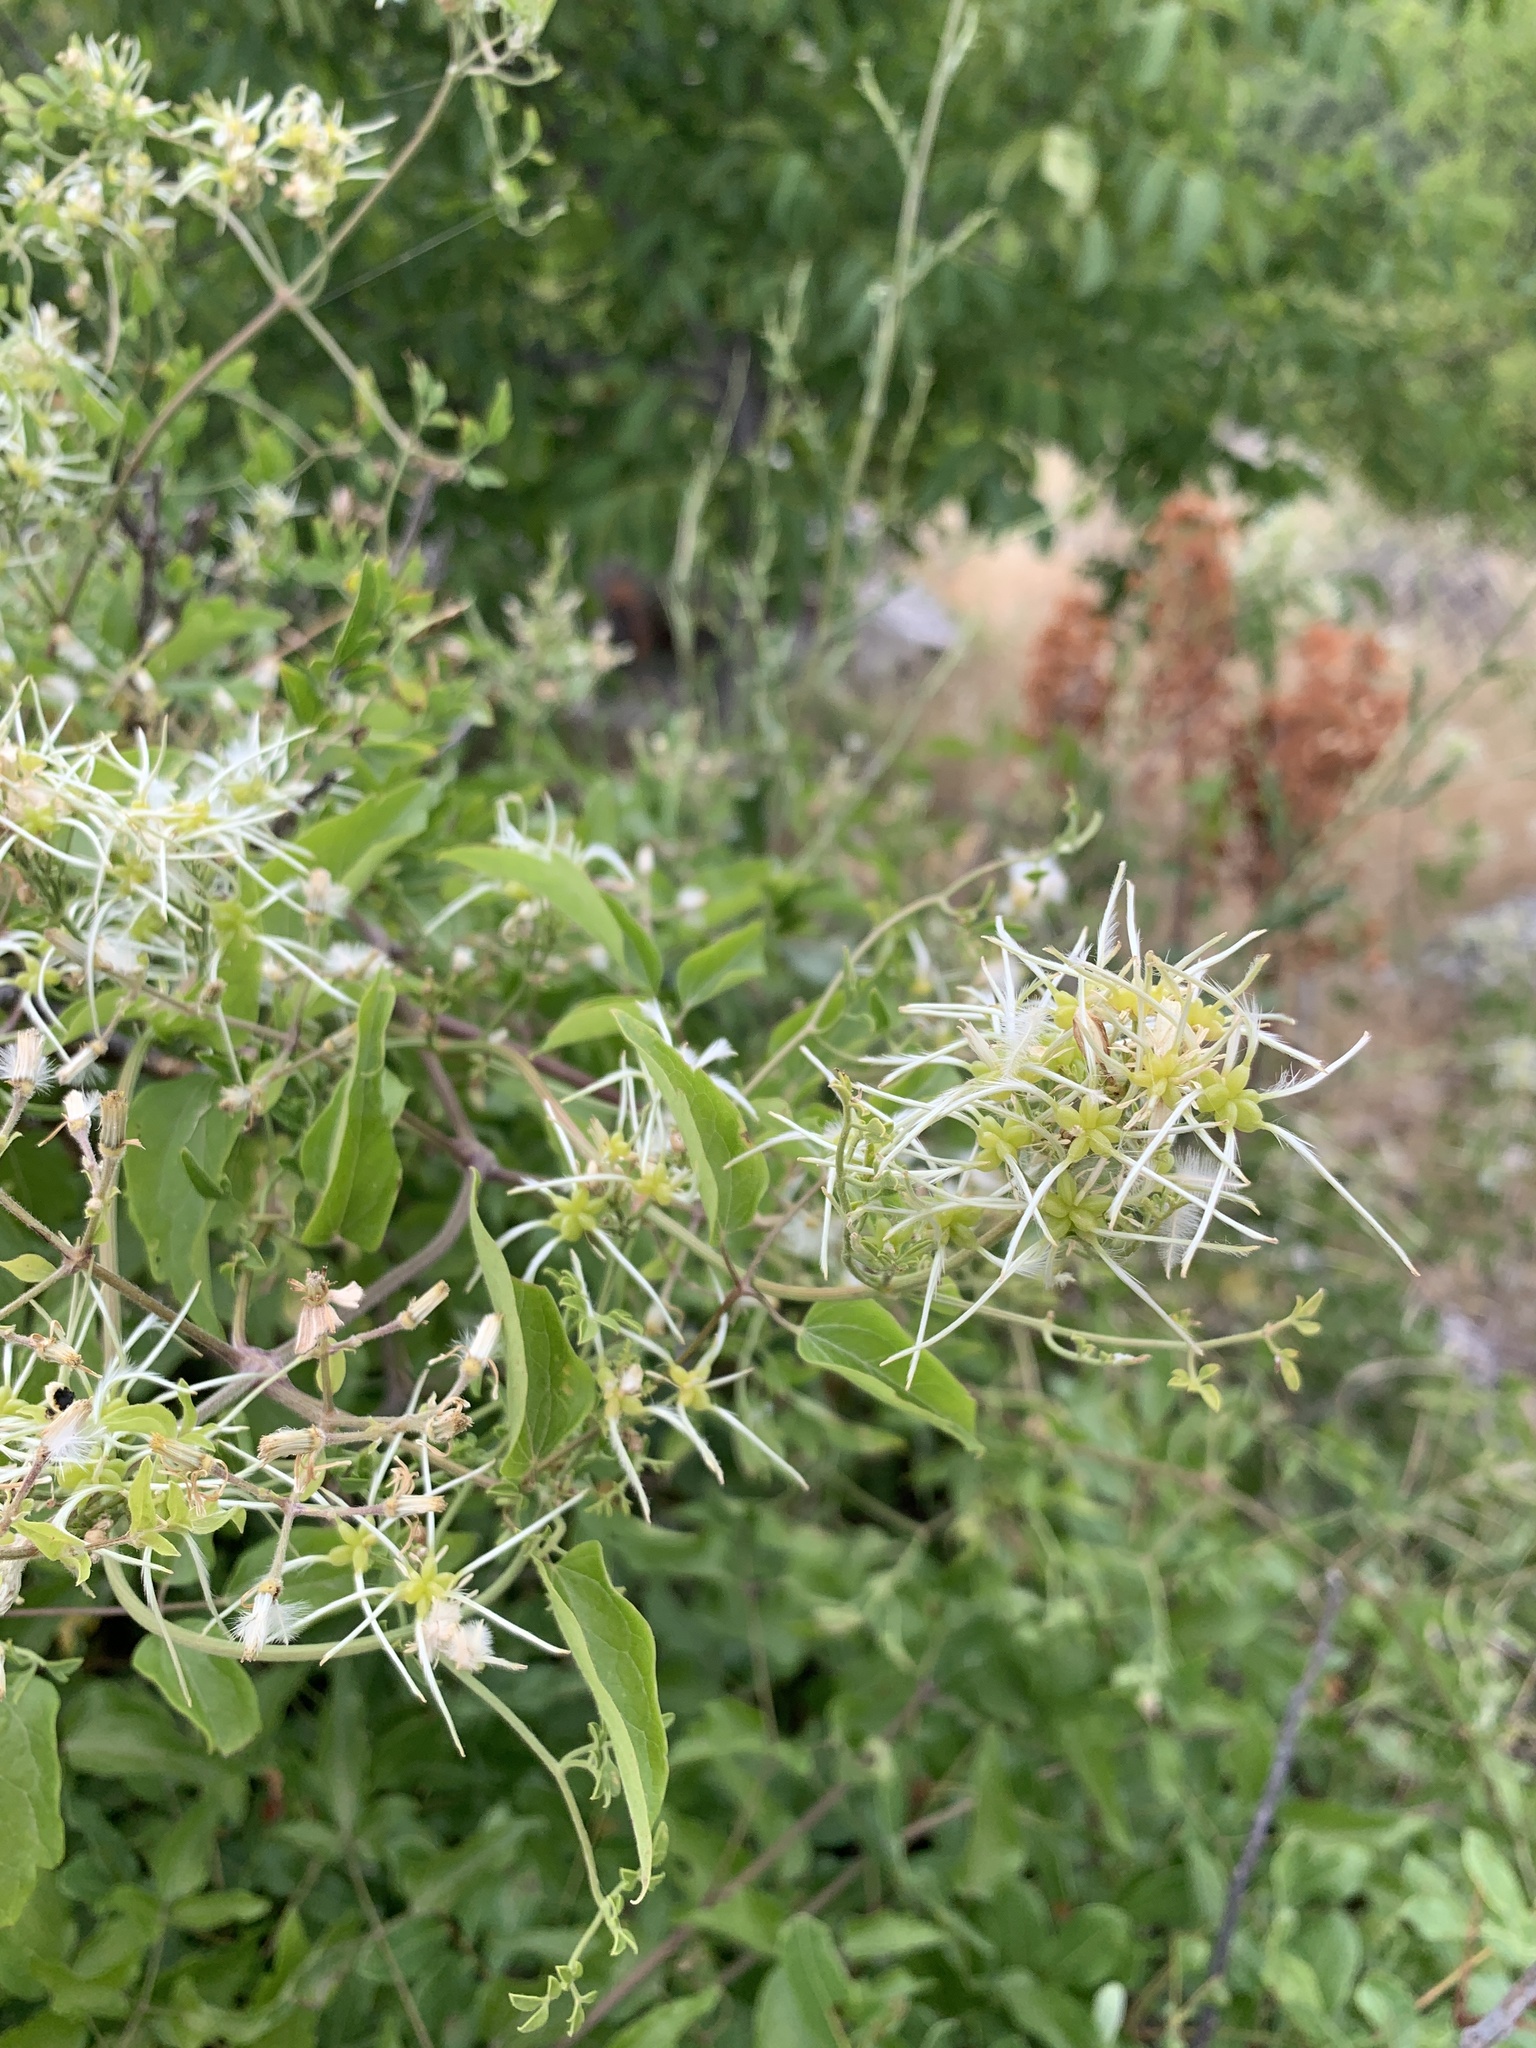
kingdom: Plantae
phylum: Tracheophyta
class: Magnoliopsida
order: Ranunculales
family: Ranunculaceae
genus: Clematis
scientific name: Clematis flammula
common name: Virgin's-bower
